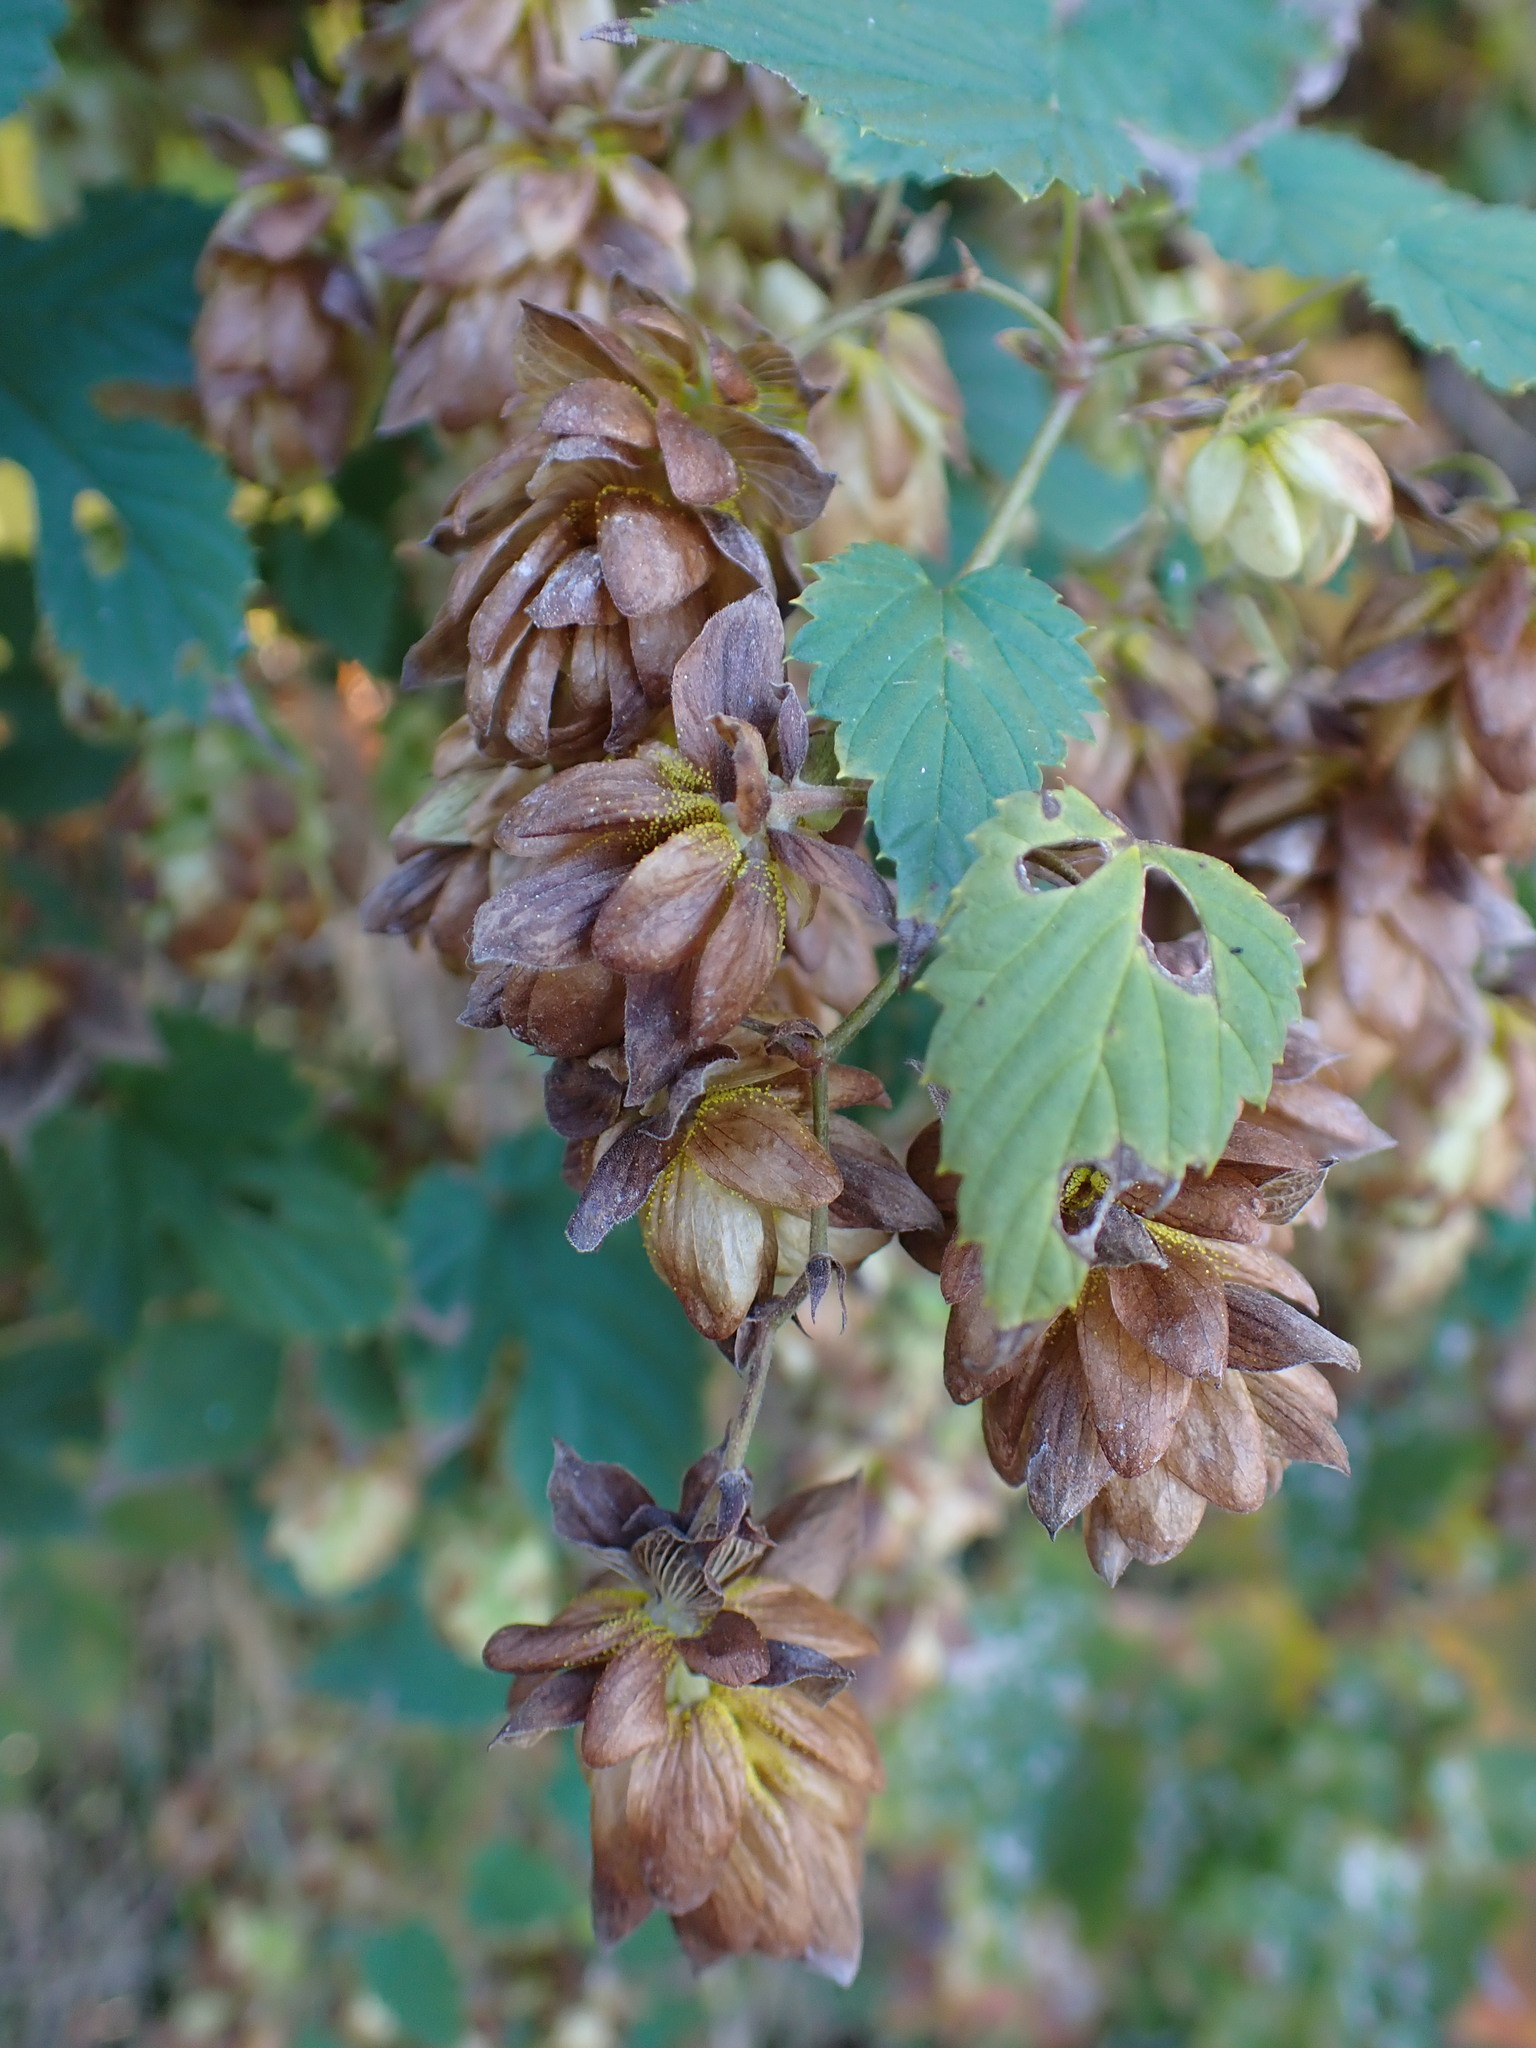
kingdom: Plantae
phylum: Tracheophyta
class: Magnoliopsida
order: Rosales
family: Cannabaceae
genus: Humulus
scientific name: Humulus lupulus
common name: Hop
